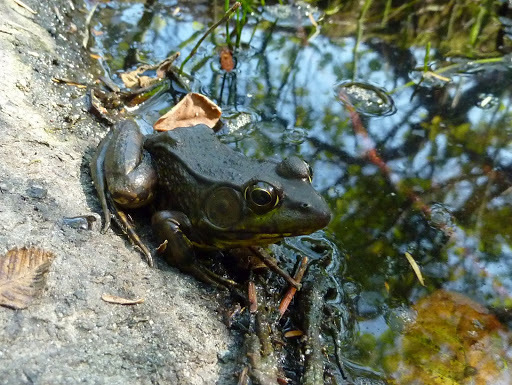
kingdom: Animalia
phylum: Chordata
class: Amphibia
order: Anura
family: Ranidae
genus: Lithobates
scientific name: Lithobates clamitans
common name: Green frog
